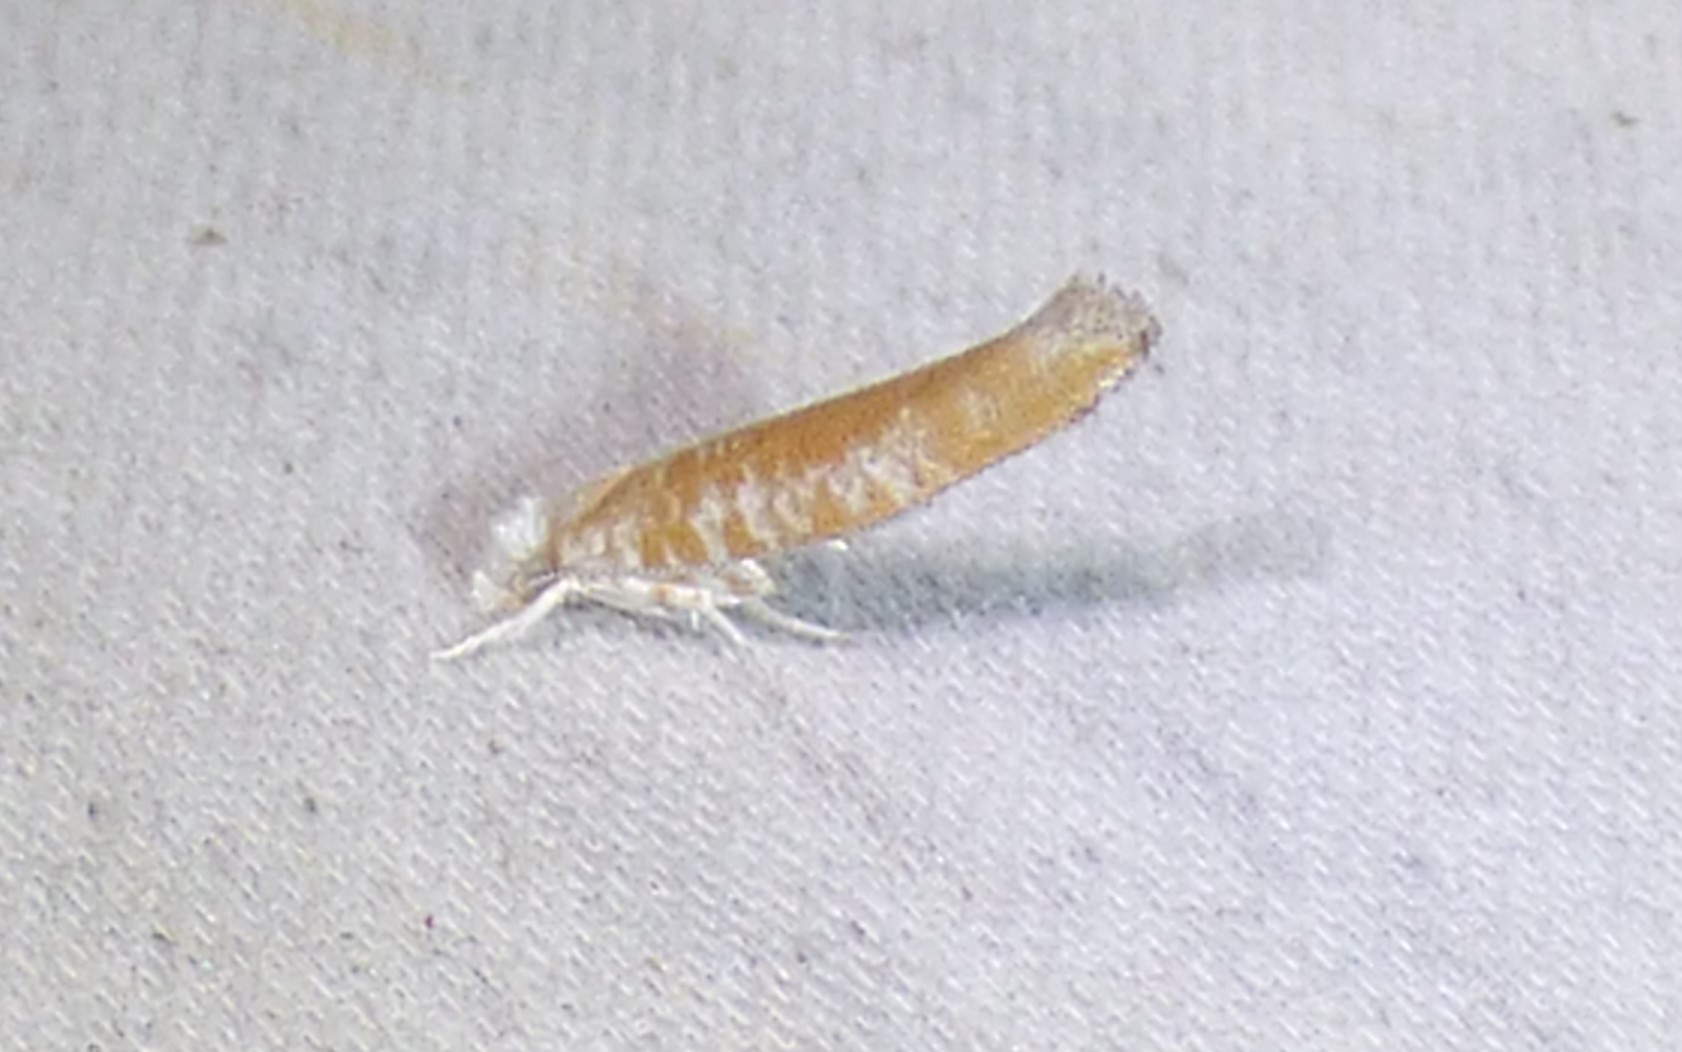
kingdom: Animalia
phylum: Arthropoda
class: Insecta
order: Lepidoptera
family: Yponomeutidae
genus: Zelleria
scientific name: Zelleria retiniella
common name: Brindled zelleria
